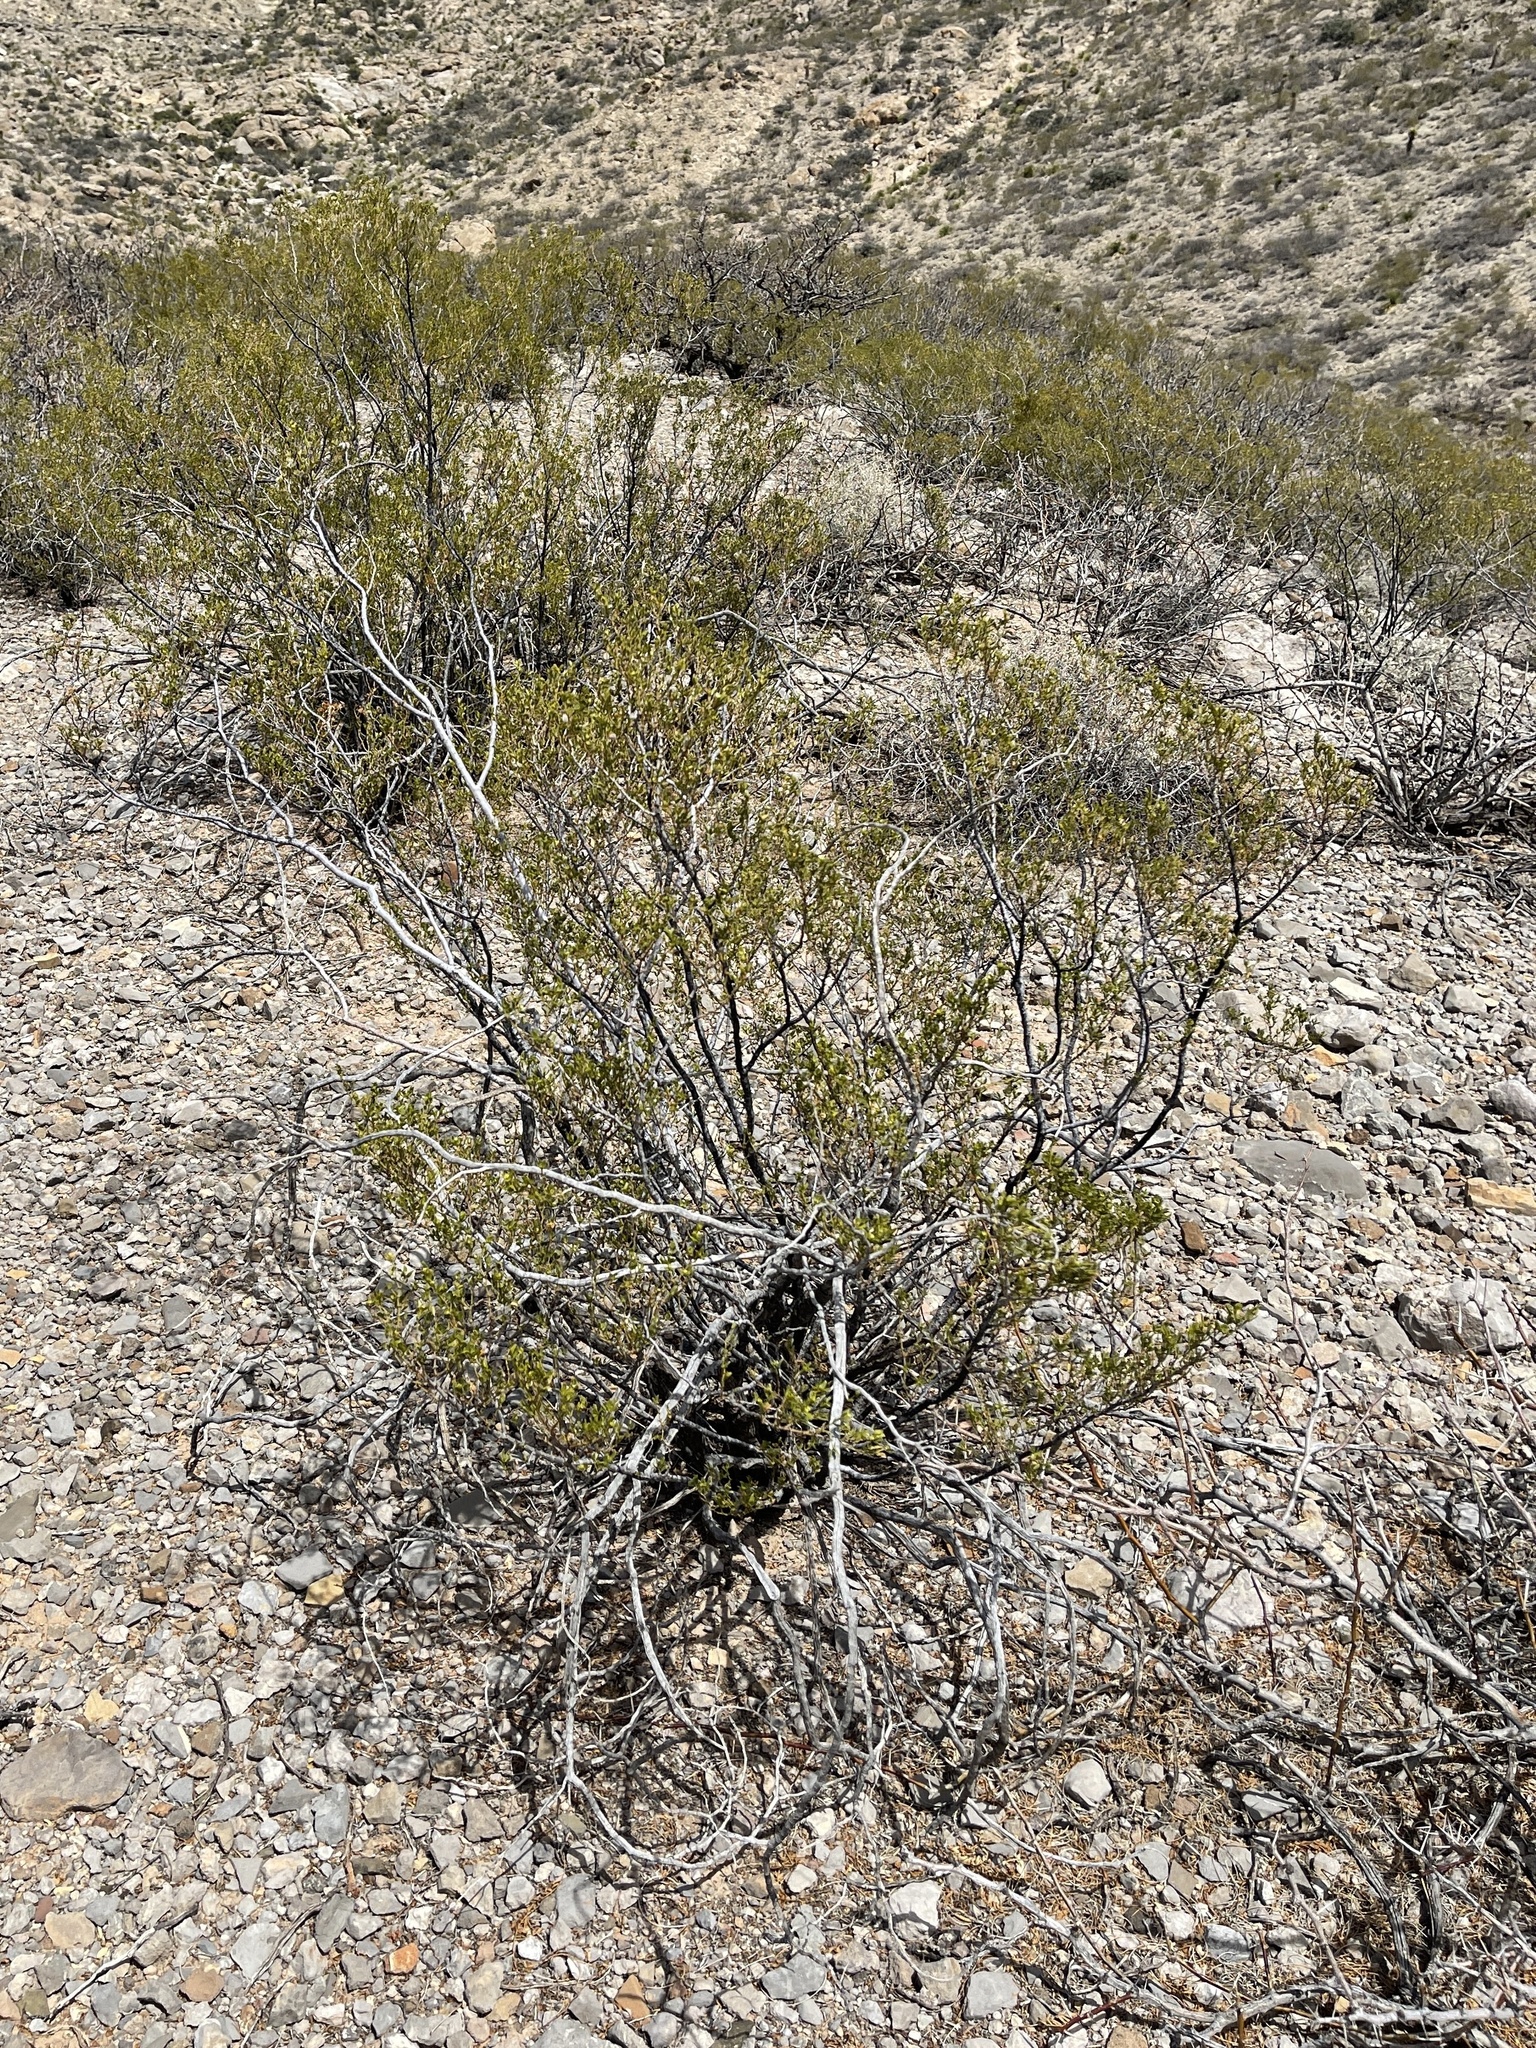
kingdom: Plantae
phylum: Tracheophyta
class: Magnoliopsida
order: Zygophyllales
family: Zygophyllaceae
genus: Larrea
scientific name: Larrea tridentata
